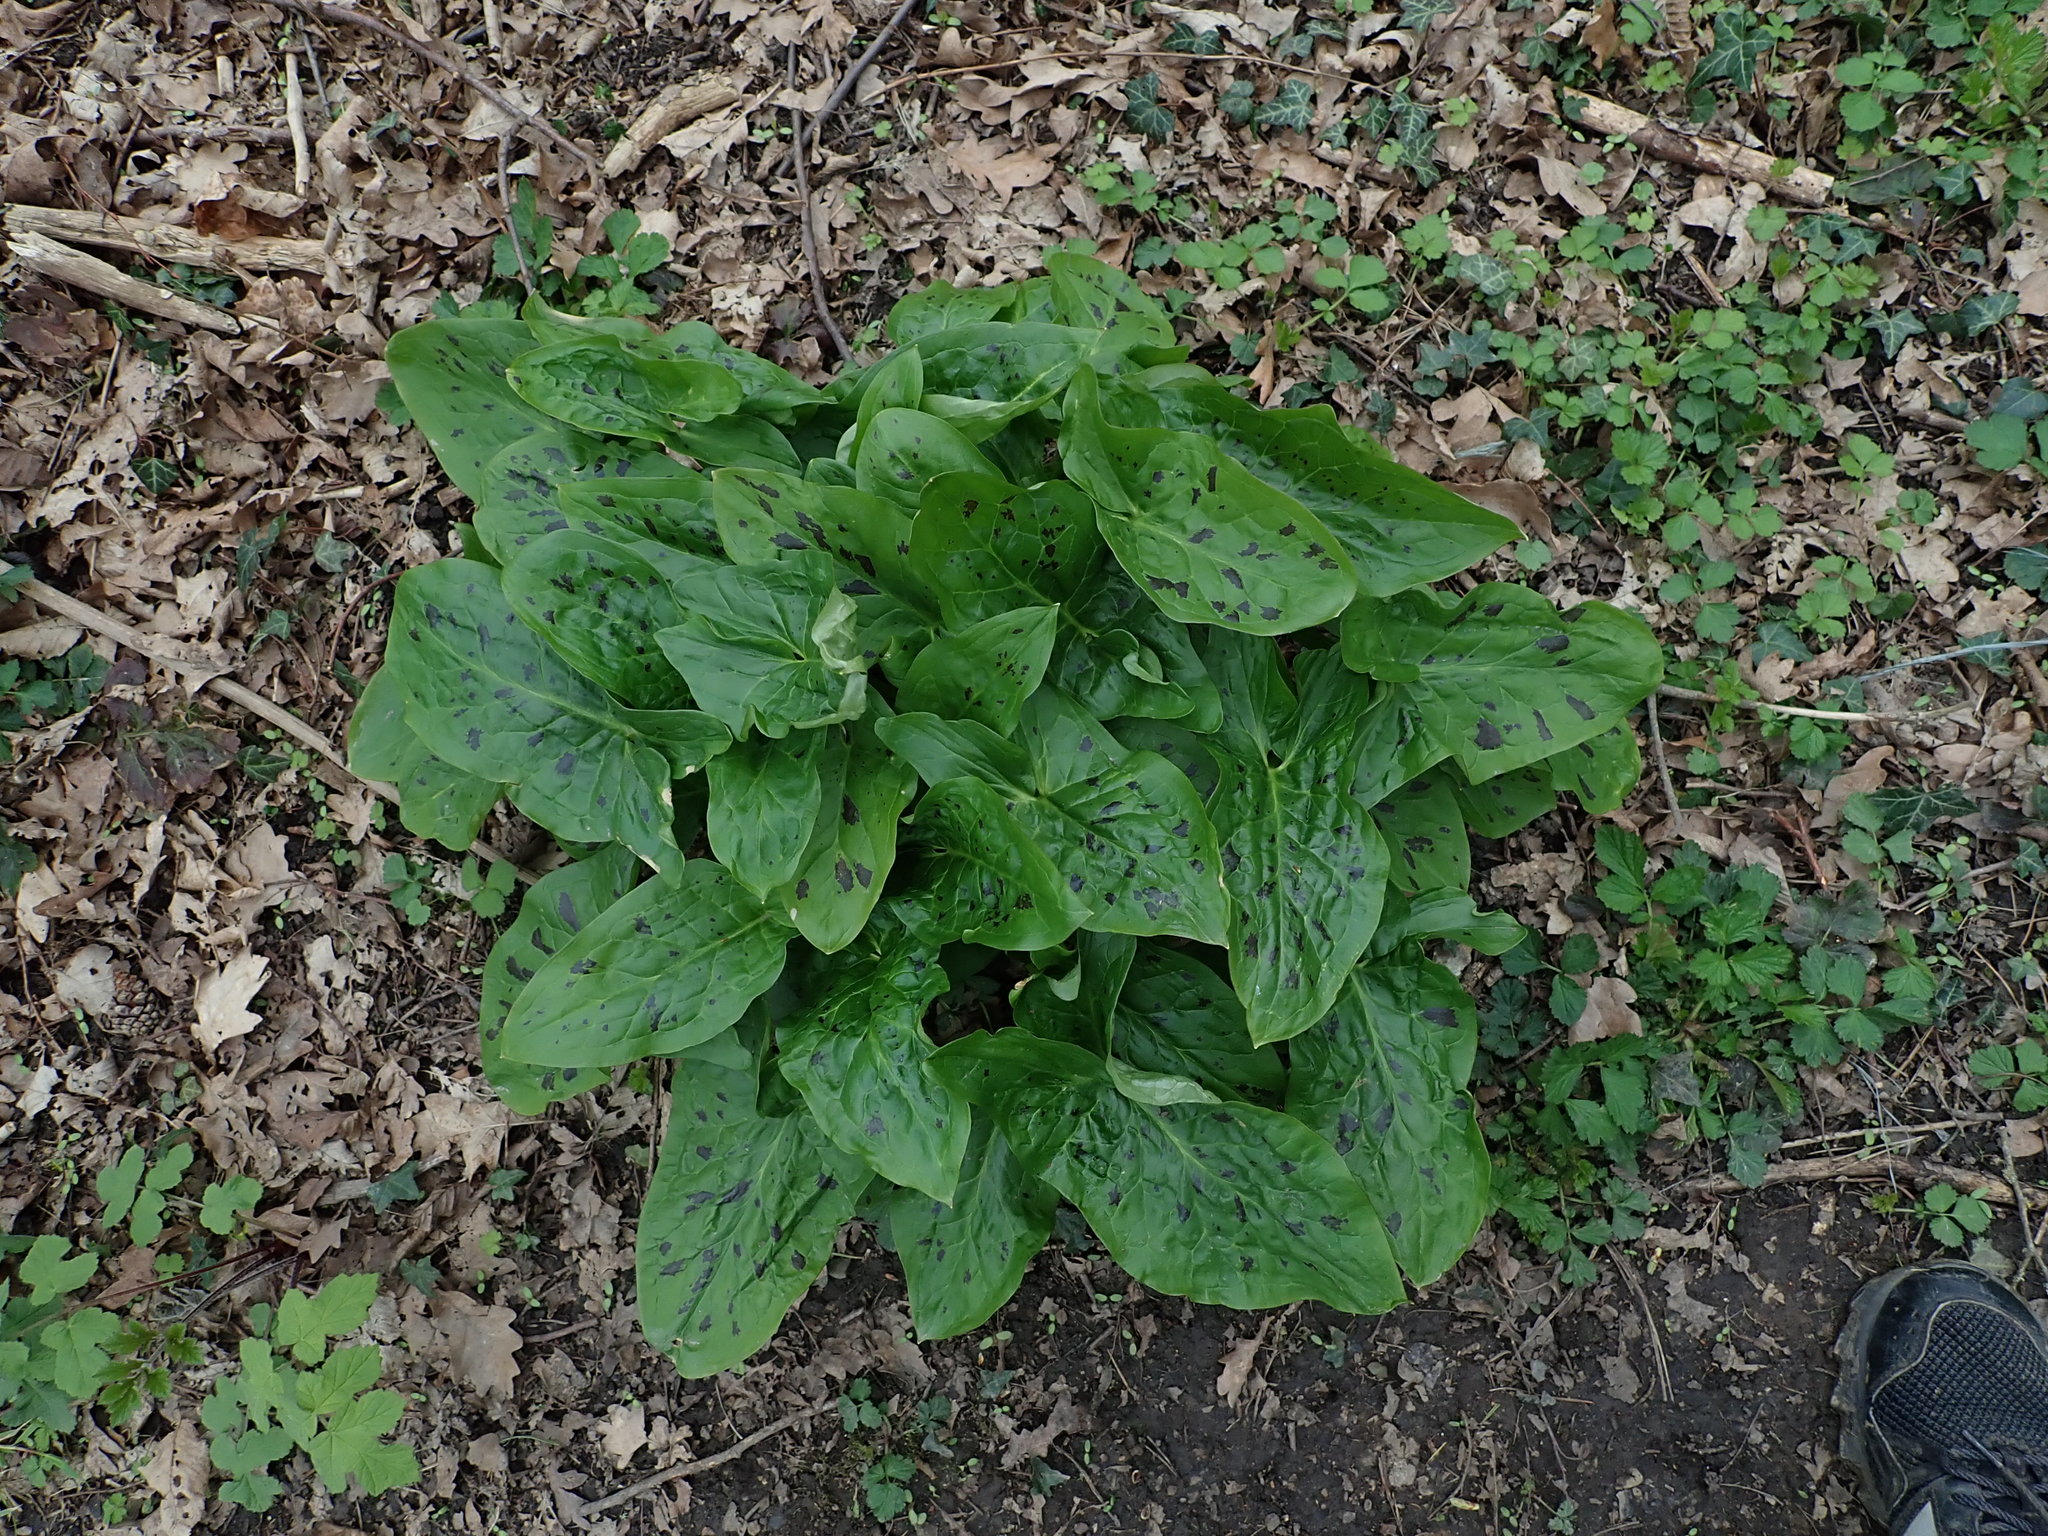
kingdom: Plantae
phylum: Tracheophyta
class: Liliopsida
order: Alismatales
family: Araceae
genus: Arum
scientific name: Arum maculatum
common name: Lords-and-ladies
